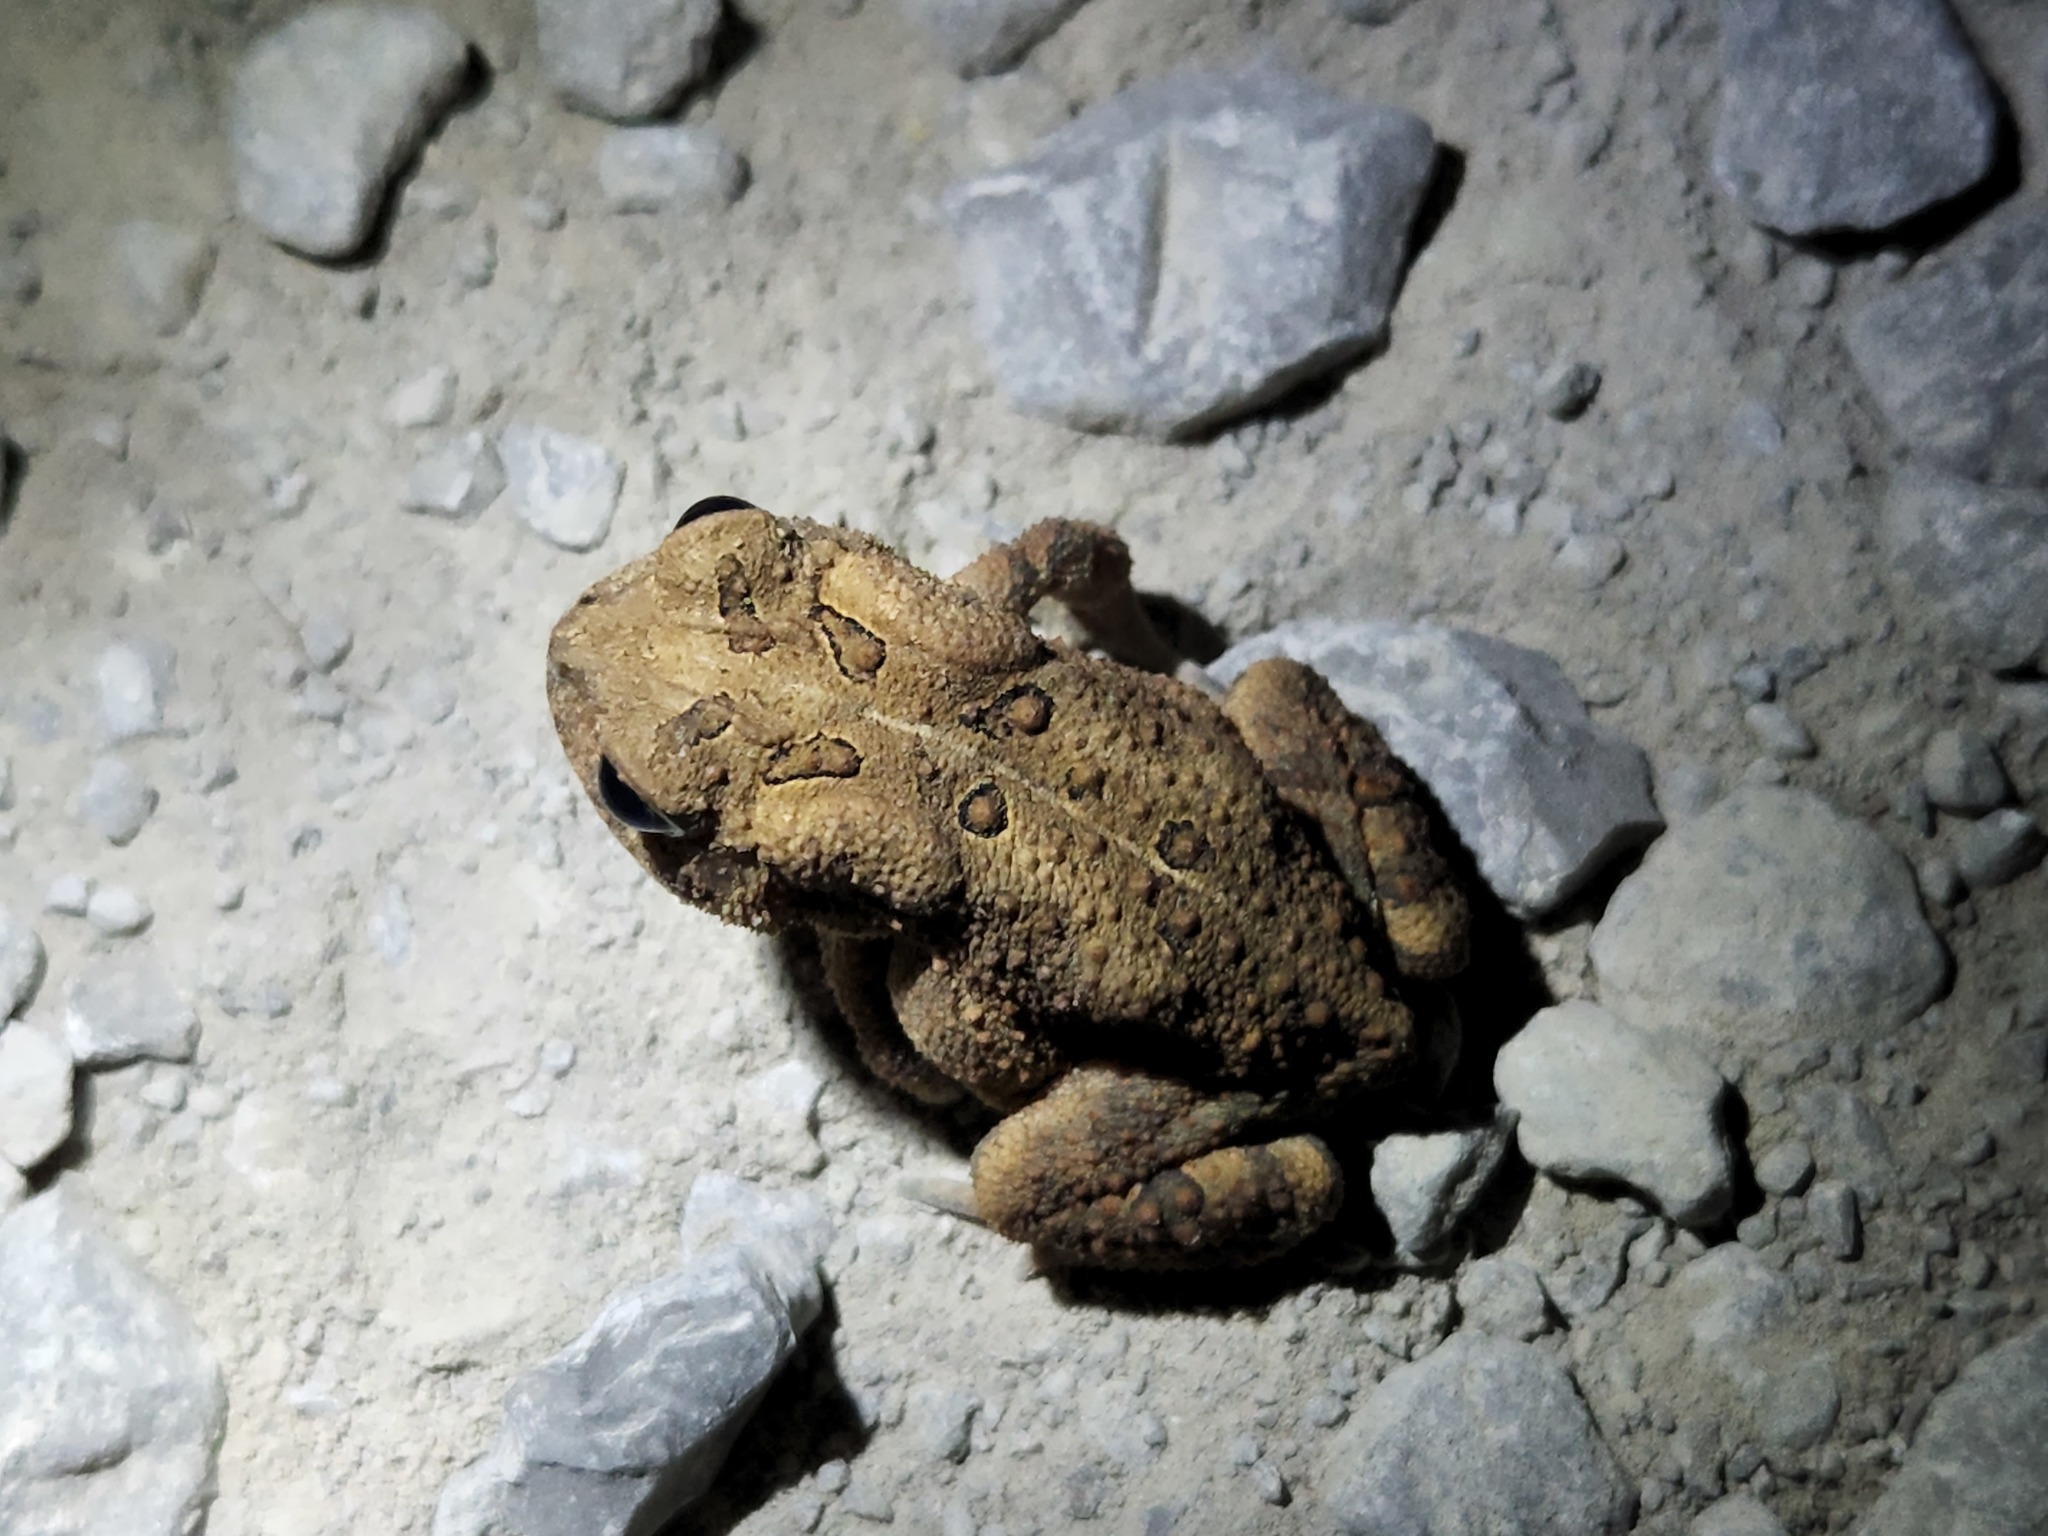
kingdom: Animalia
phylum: Chordata
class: Amphibia
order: Anura
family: Bufonidae
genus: Anaxyrus
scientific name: Anaxyrus americanus
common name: American toad
